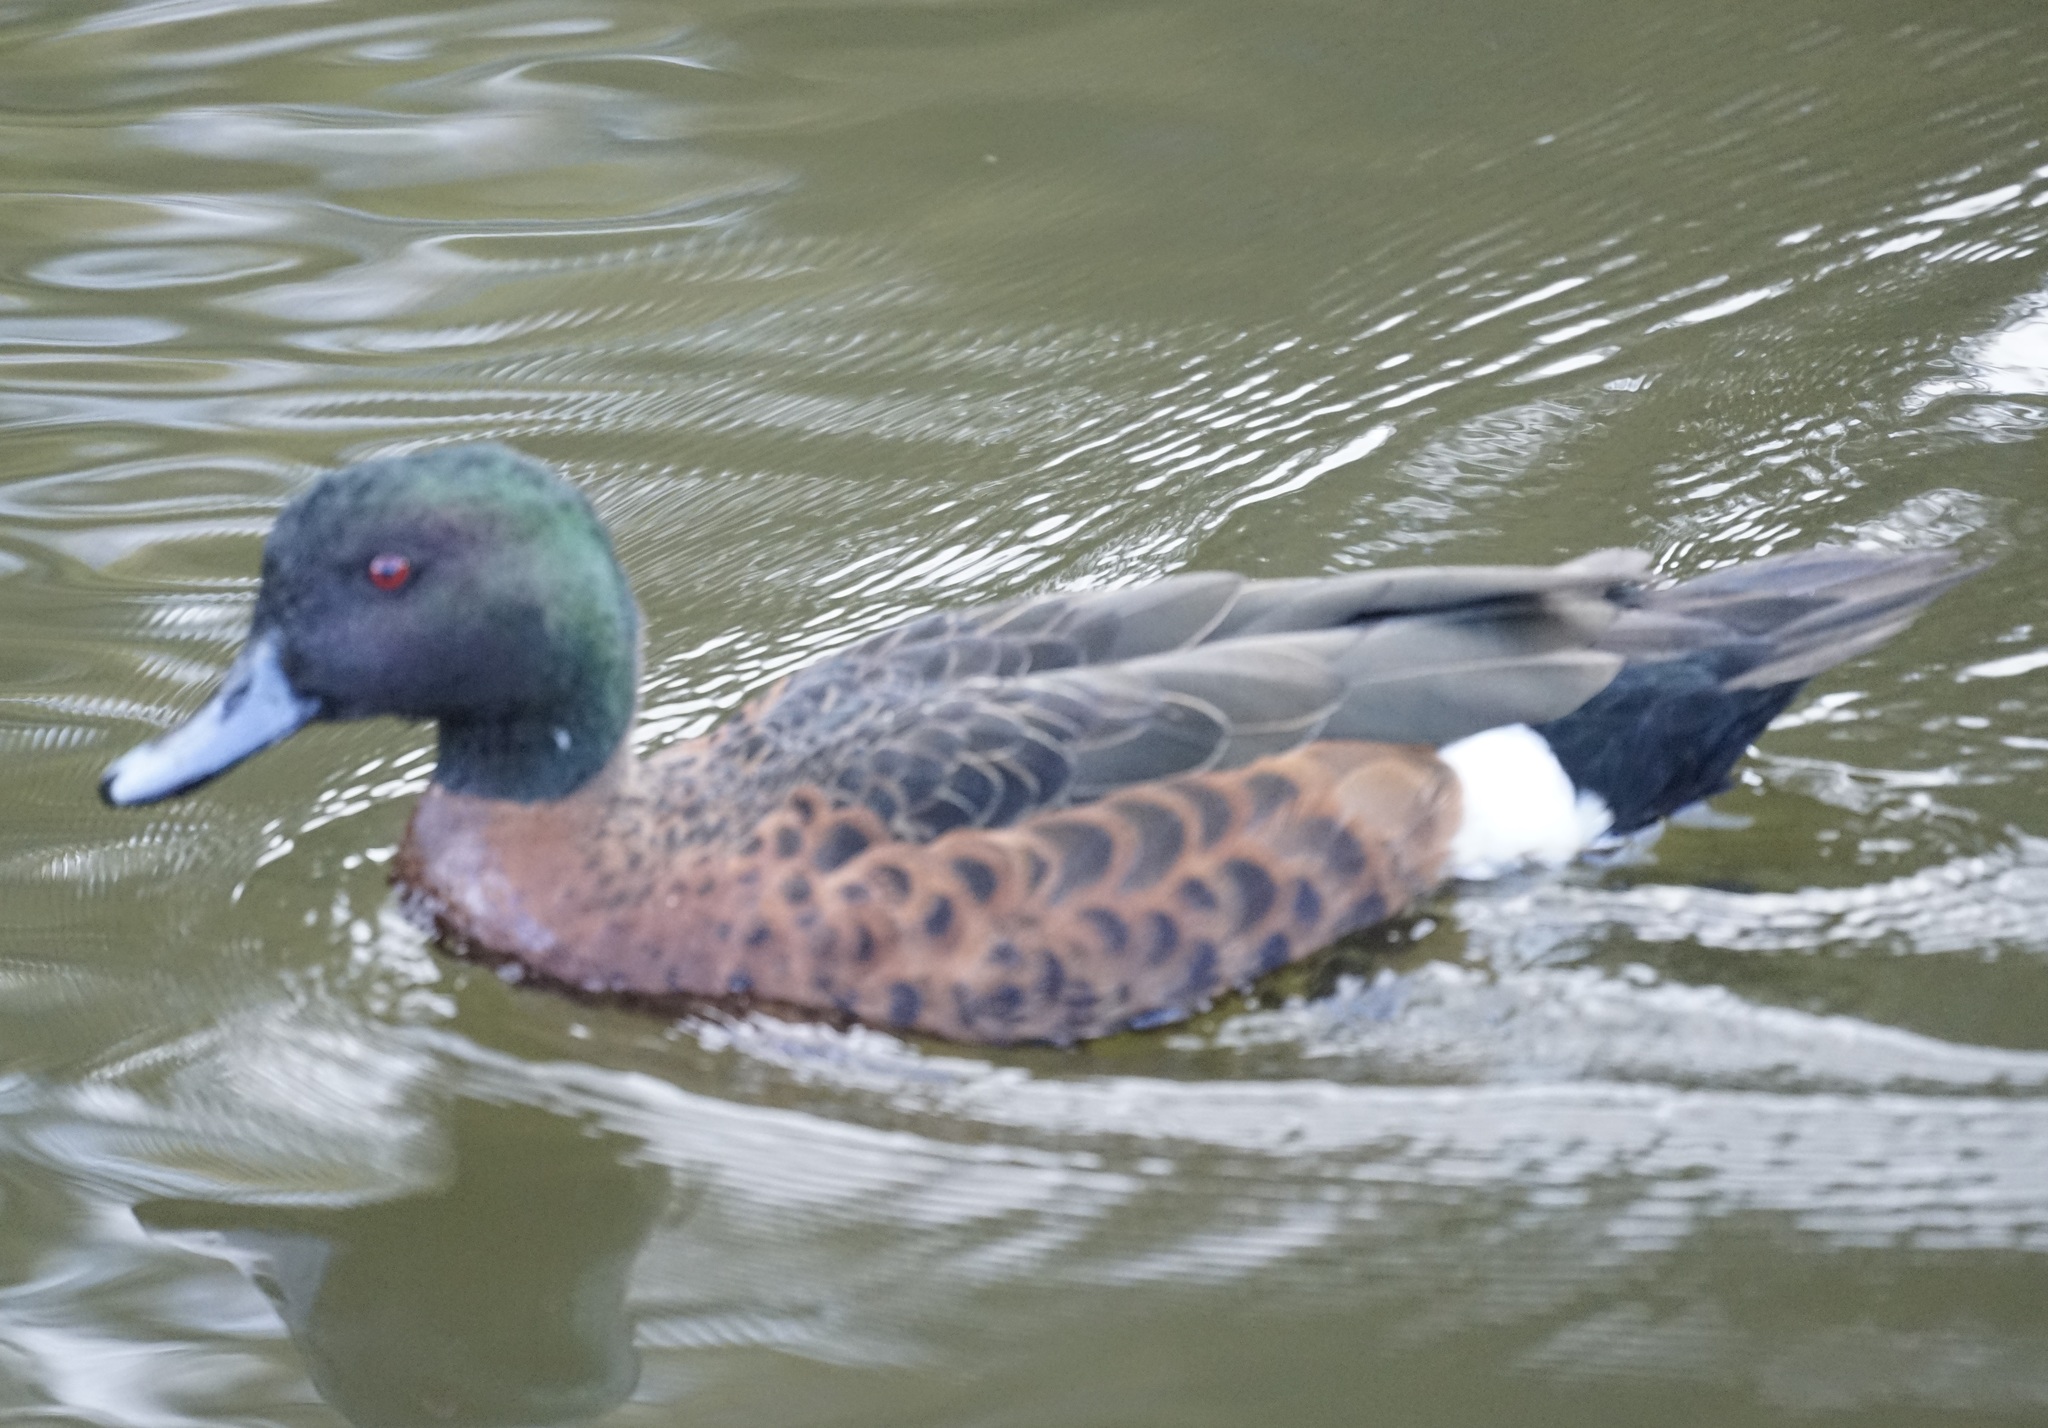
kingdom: Animalia
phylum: Chordata
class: Aves
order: Anseriformes
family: Anatidae
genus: Anas
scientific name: Anas castanea
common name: Chestnut teal
